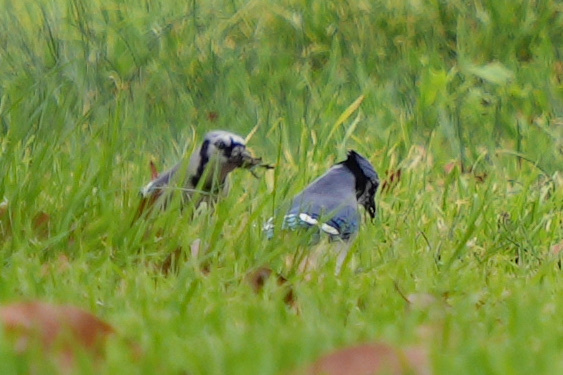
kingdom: Animalia
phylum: Chordata
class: Aves
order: Passeriformes
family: Corvidae
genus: Cyanocitta
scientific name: Cyanocitta cristata
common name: Blue jay
